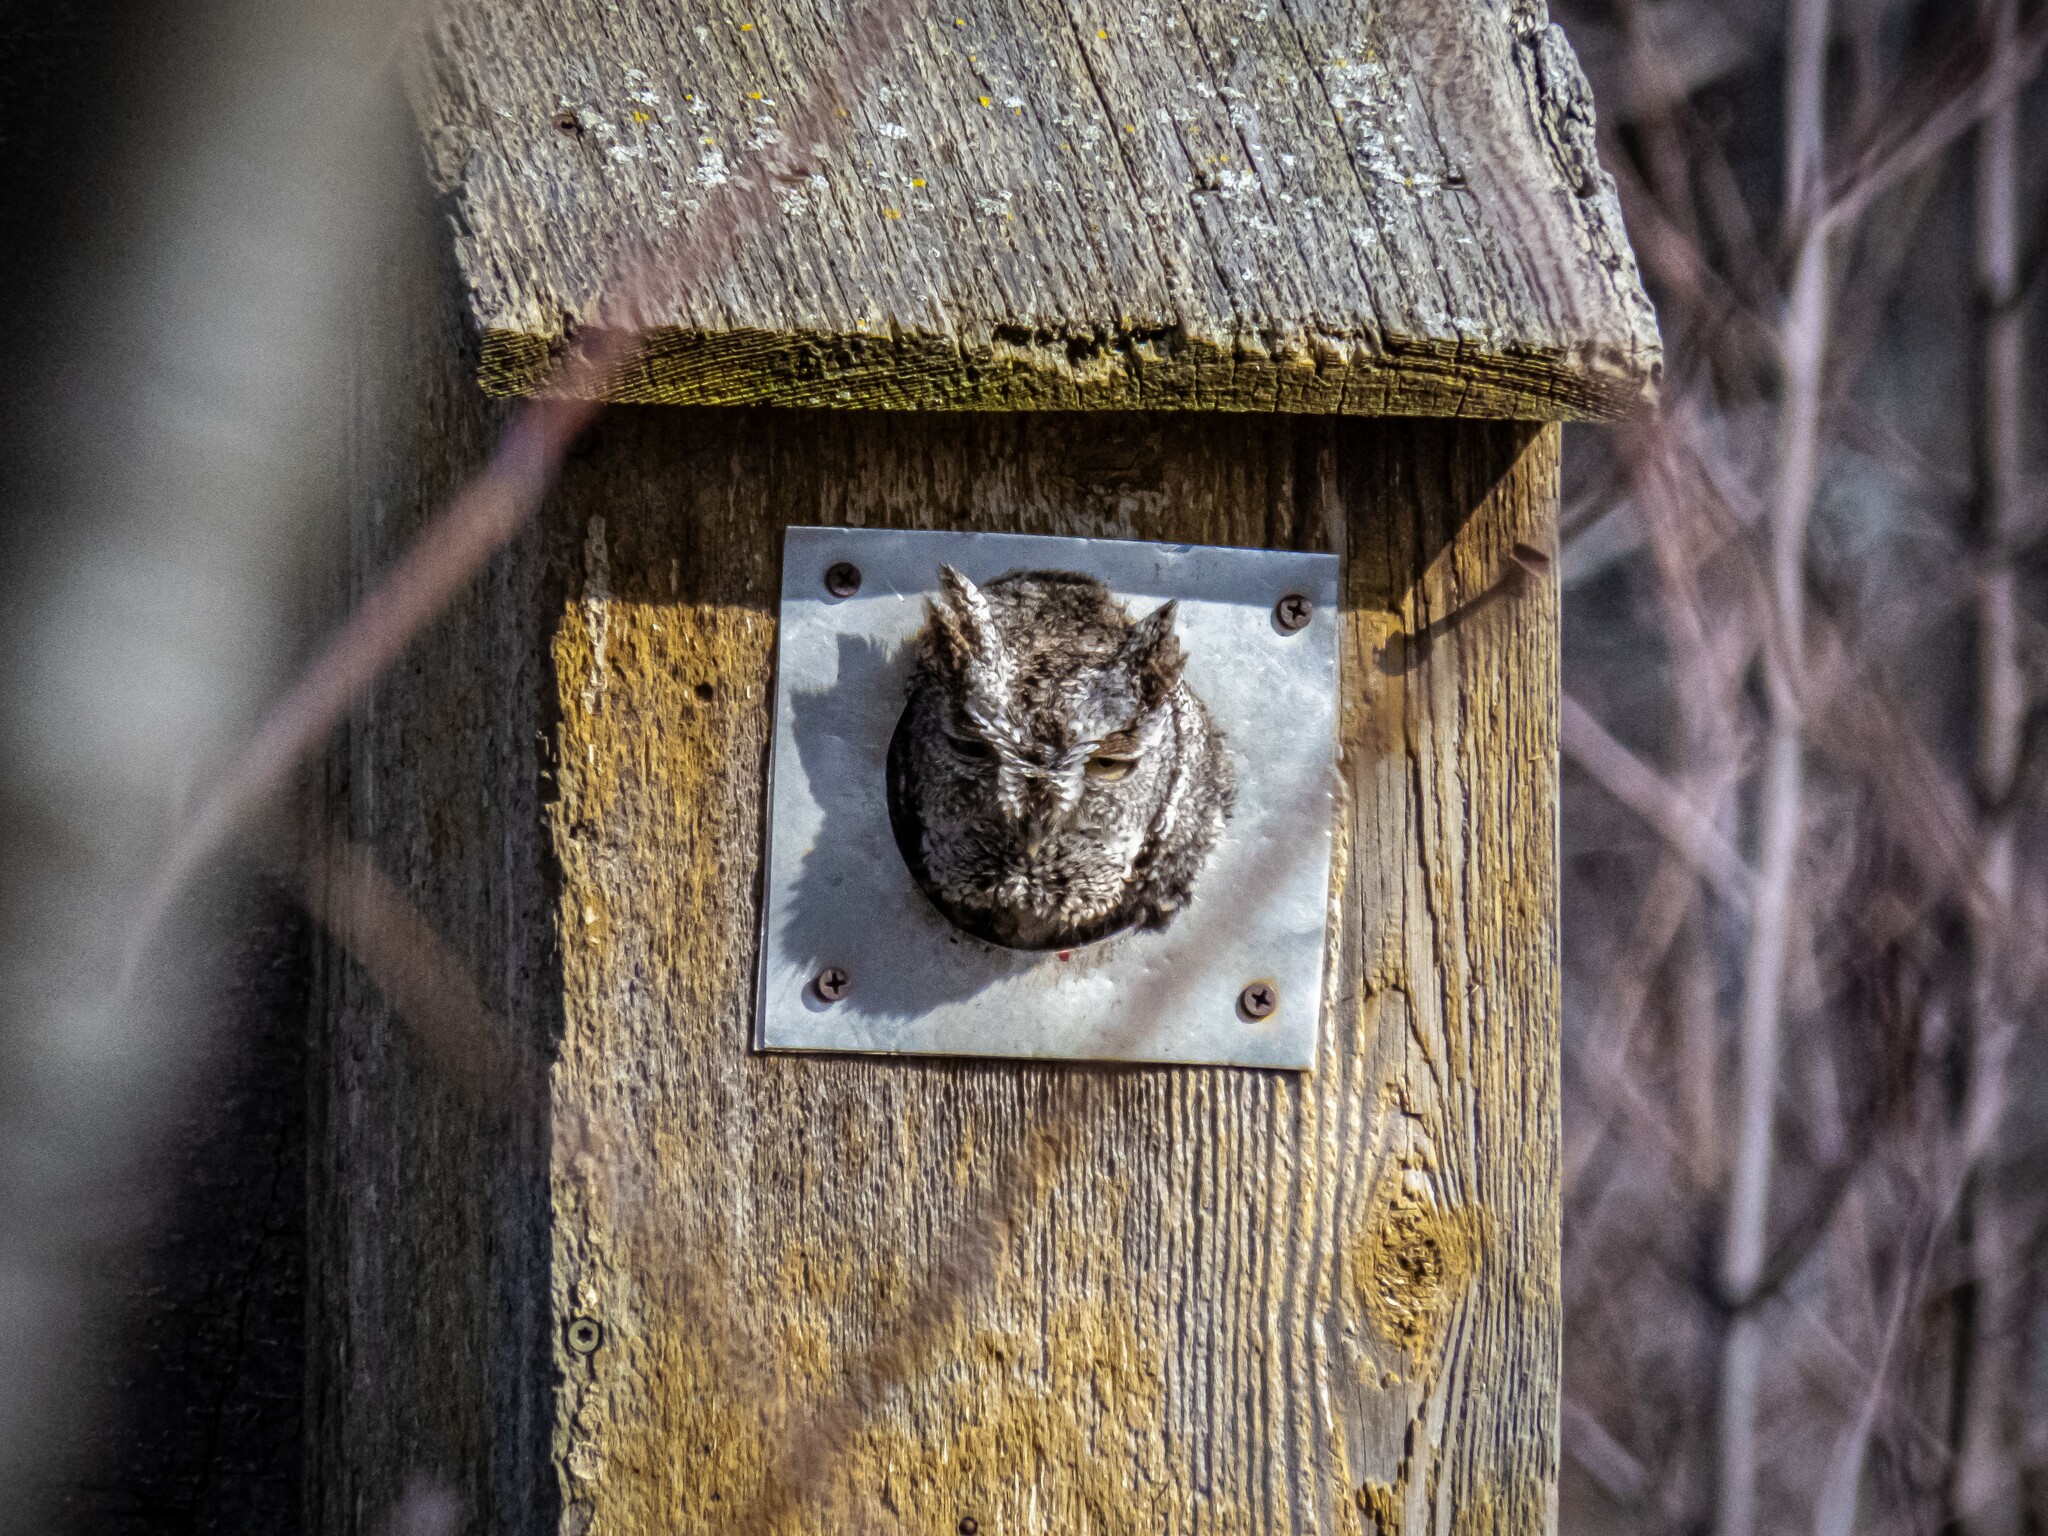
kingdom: Animalia
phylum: Chordata
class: Aves
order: Strigiformes
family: Strigidae
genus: Megascops
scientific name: Megascops asio
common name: Eastern screech-owl
